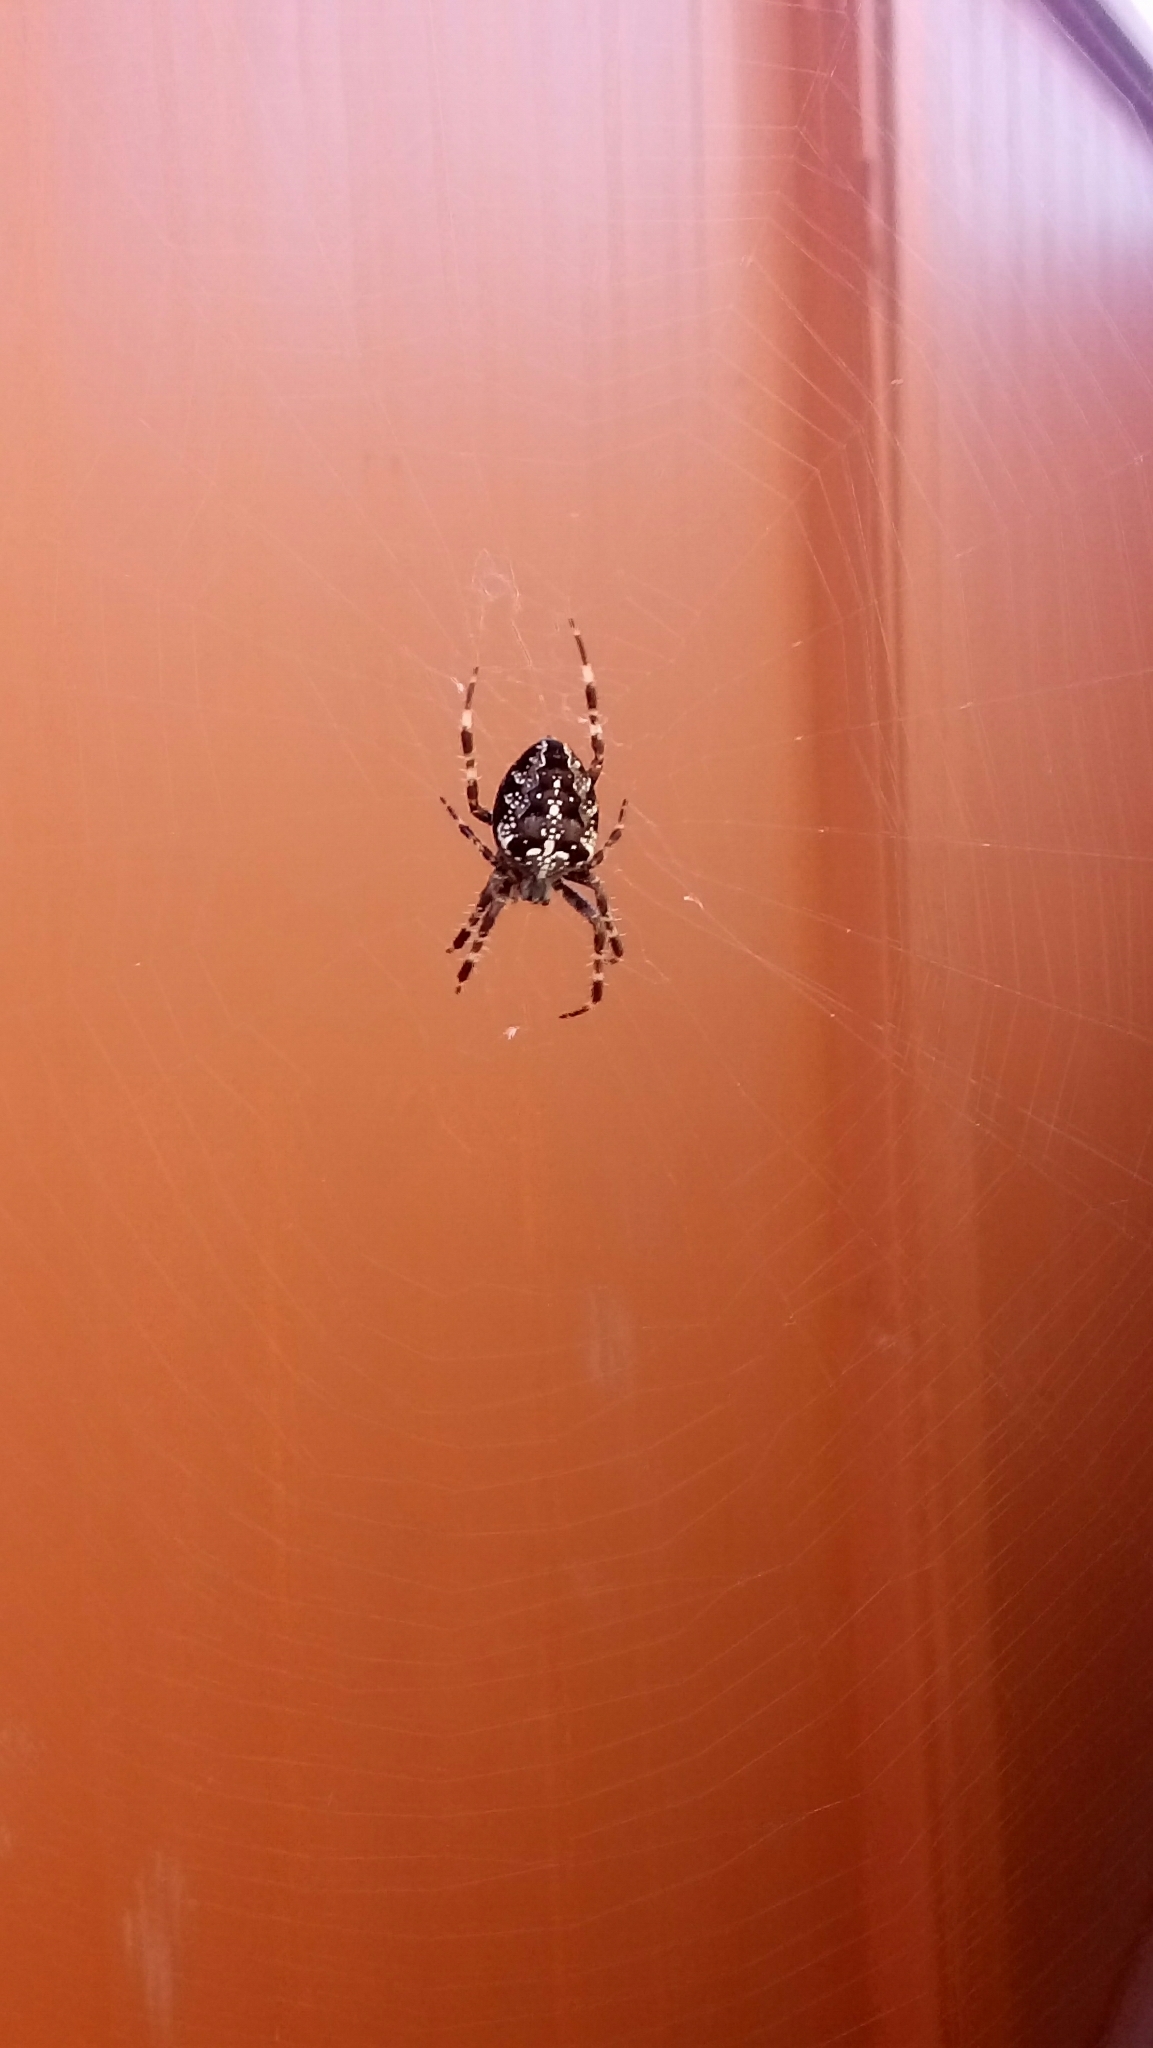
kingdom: Animalia
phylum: Arthropoda
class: Arachnida
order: Araneae
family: Araneidae
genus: Araneus
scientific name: Araneus diadematus
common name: Cross orbweaver
